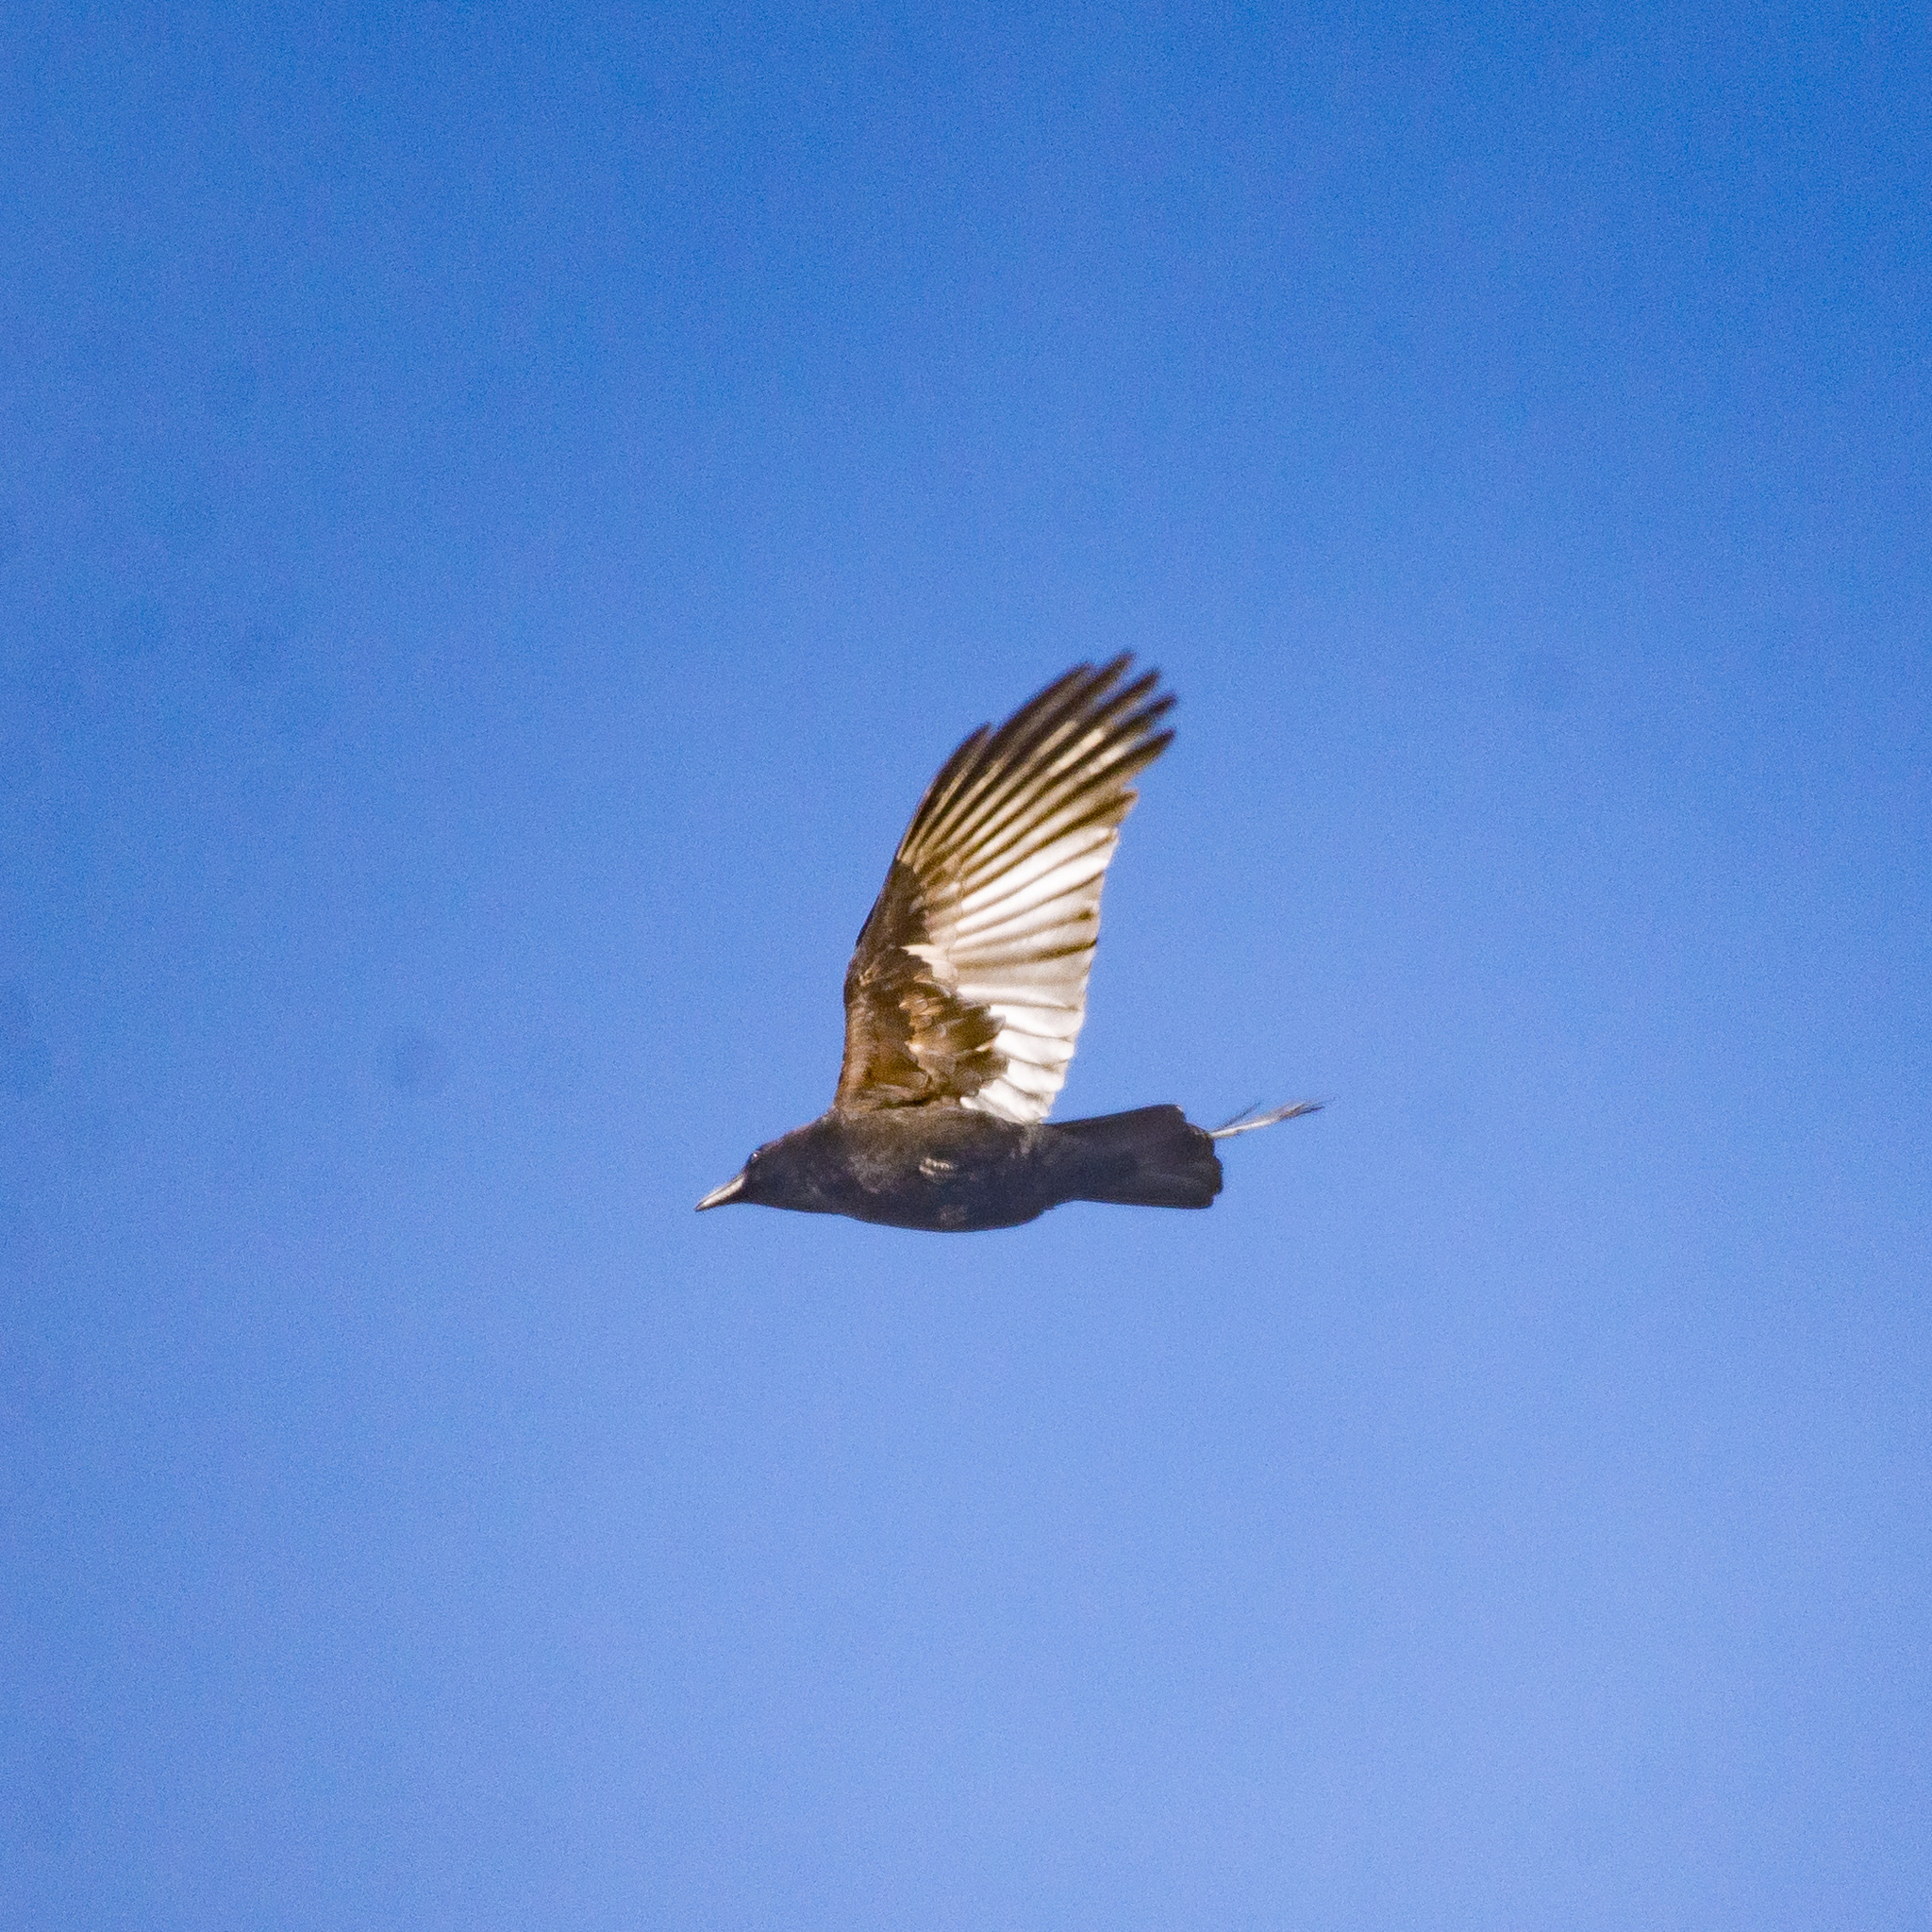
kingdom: Animalia
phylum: Chordata
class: Aves
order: Passeriformes
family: Corvidae
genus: Corvus
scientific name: Corvus corone
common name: Carrion crow
